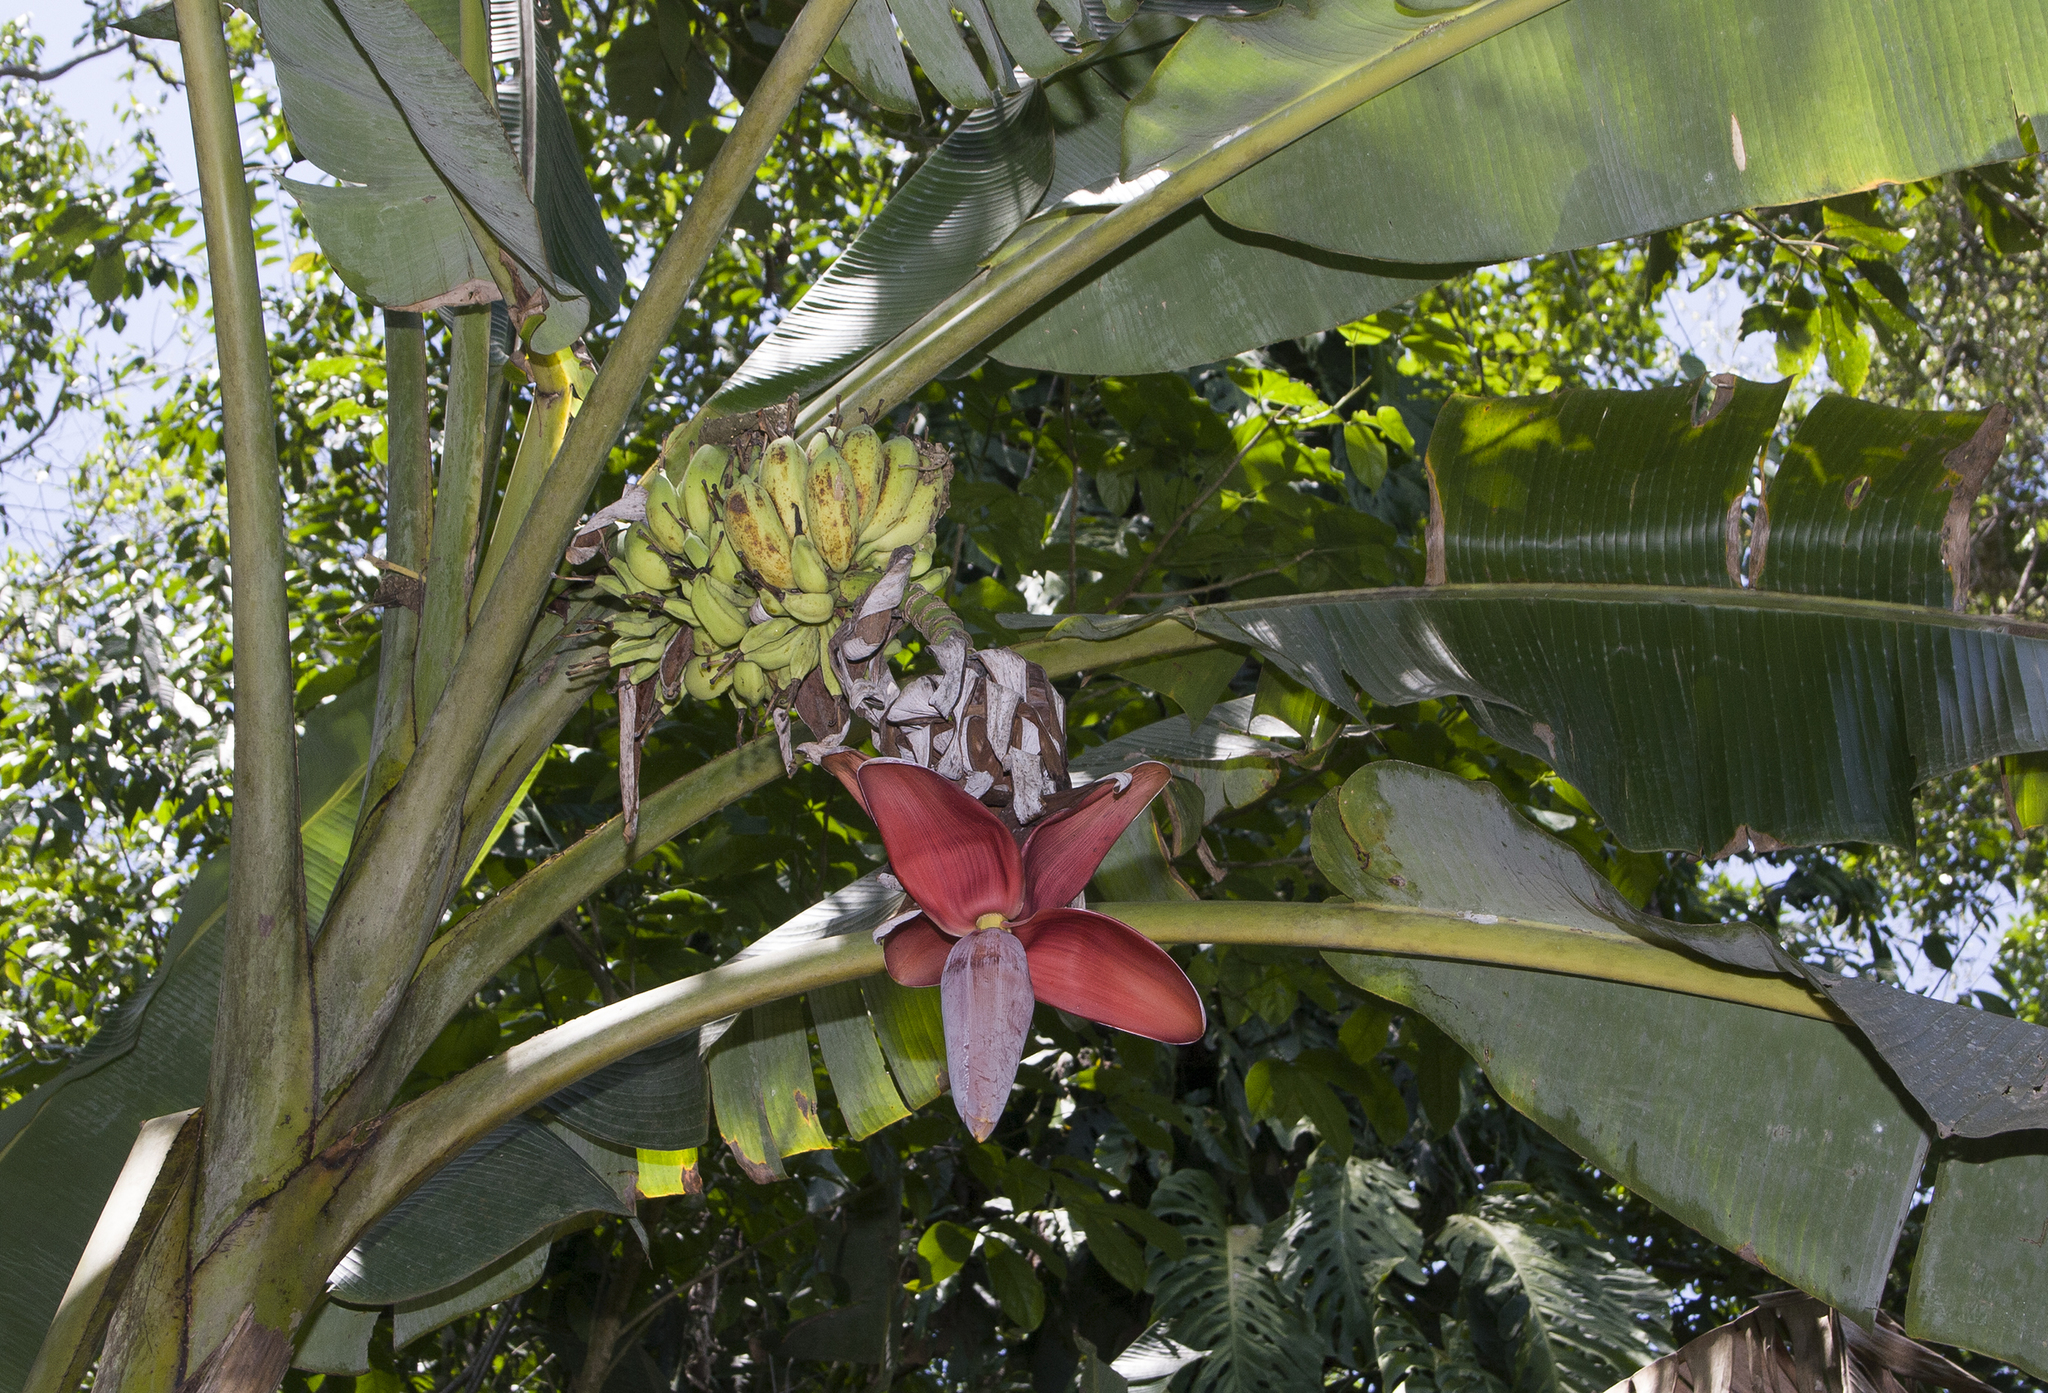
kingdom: Plantae
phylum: Tracheophyta
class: Liliopsida
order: Zingiberales
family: Musaceae
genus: Musa
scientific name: Musa balbisiana
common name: Plantain
